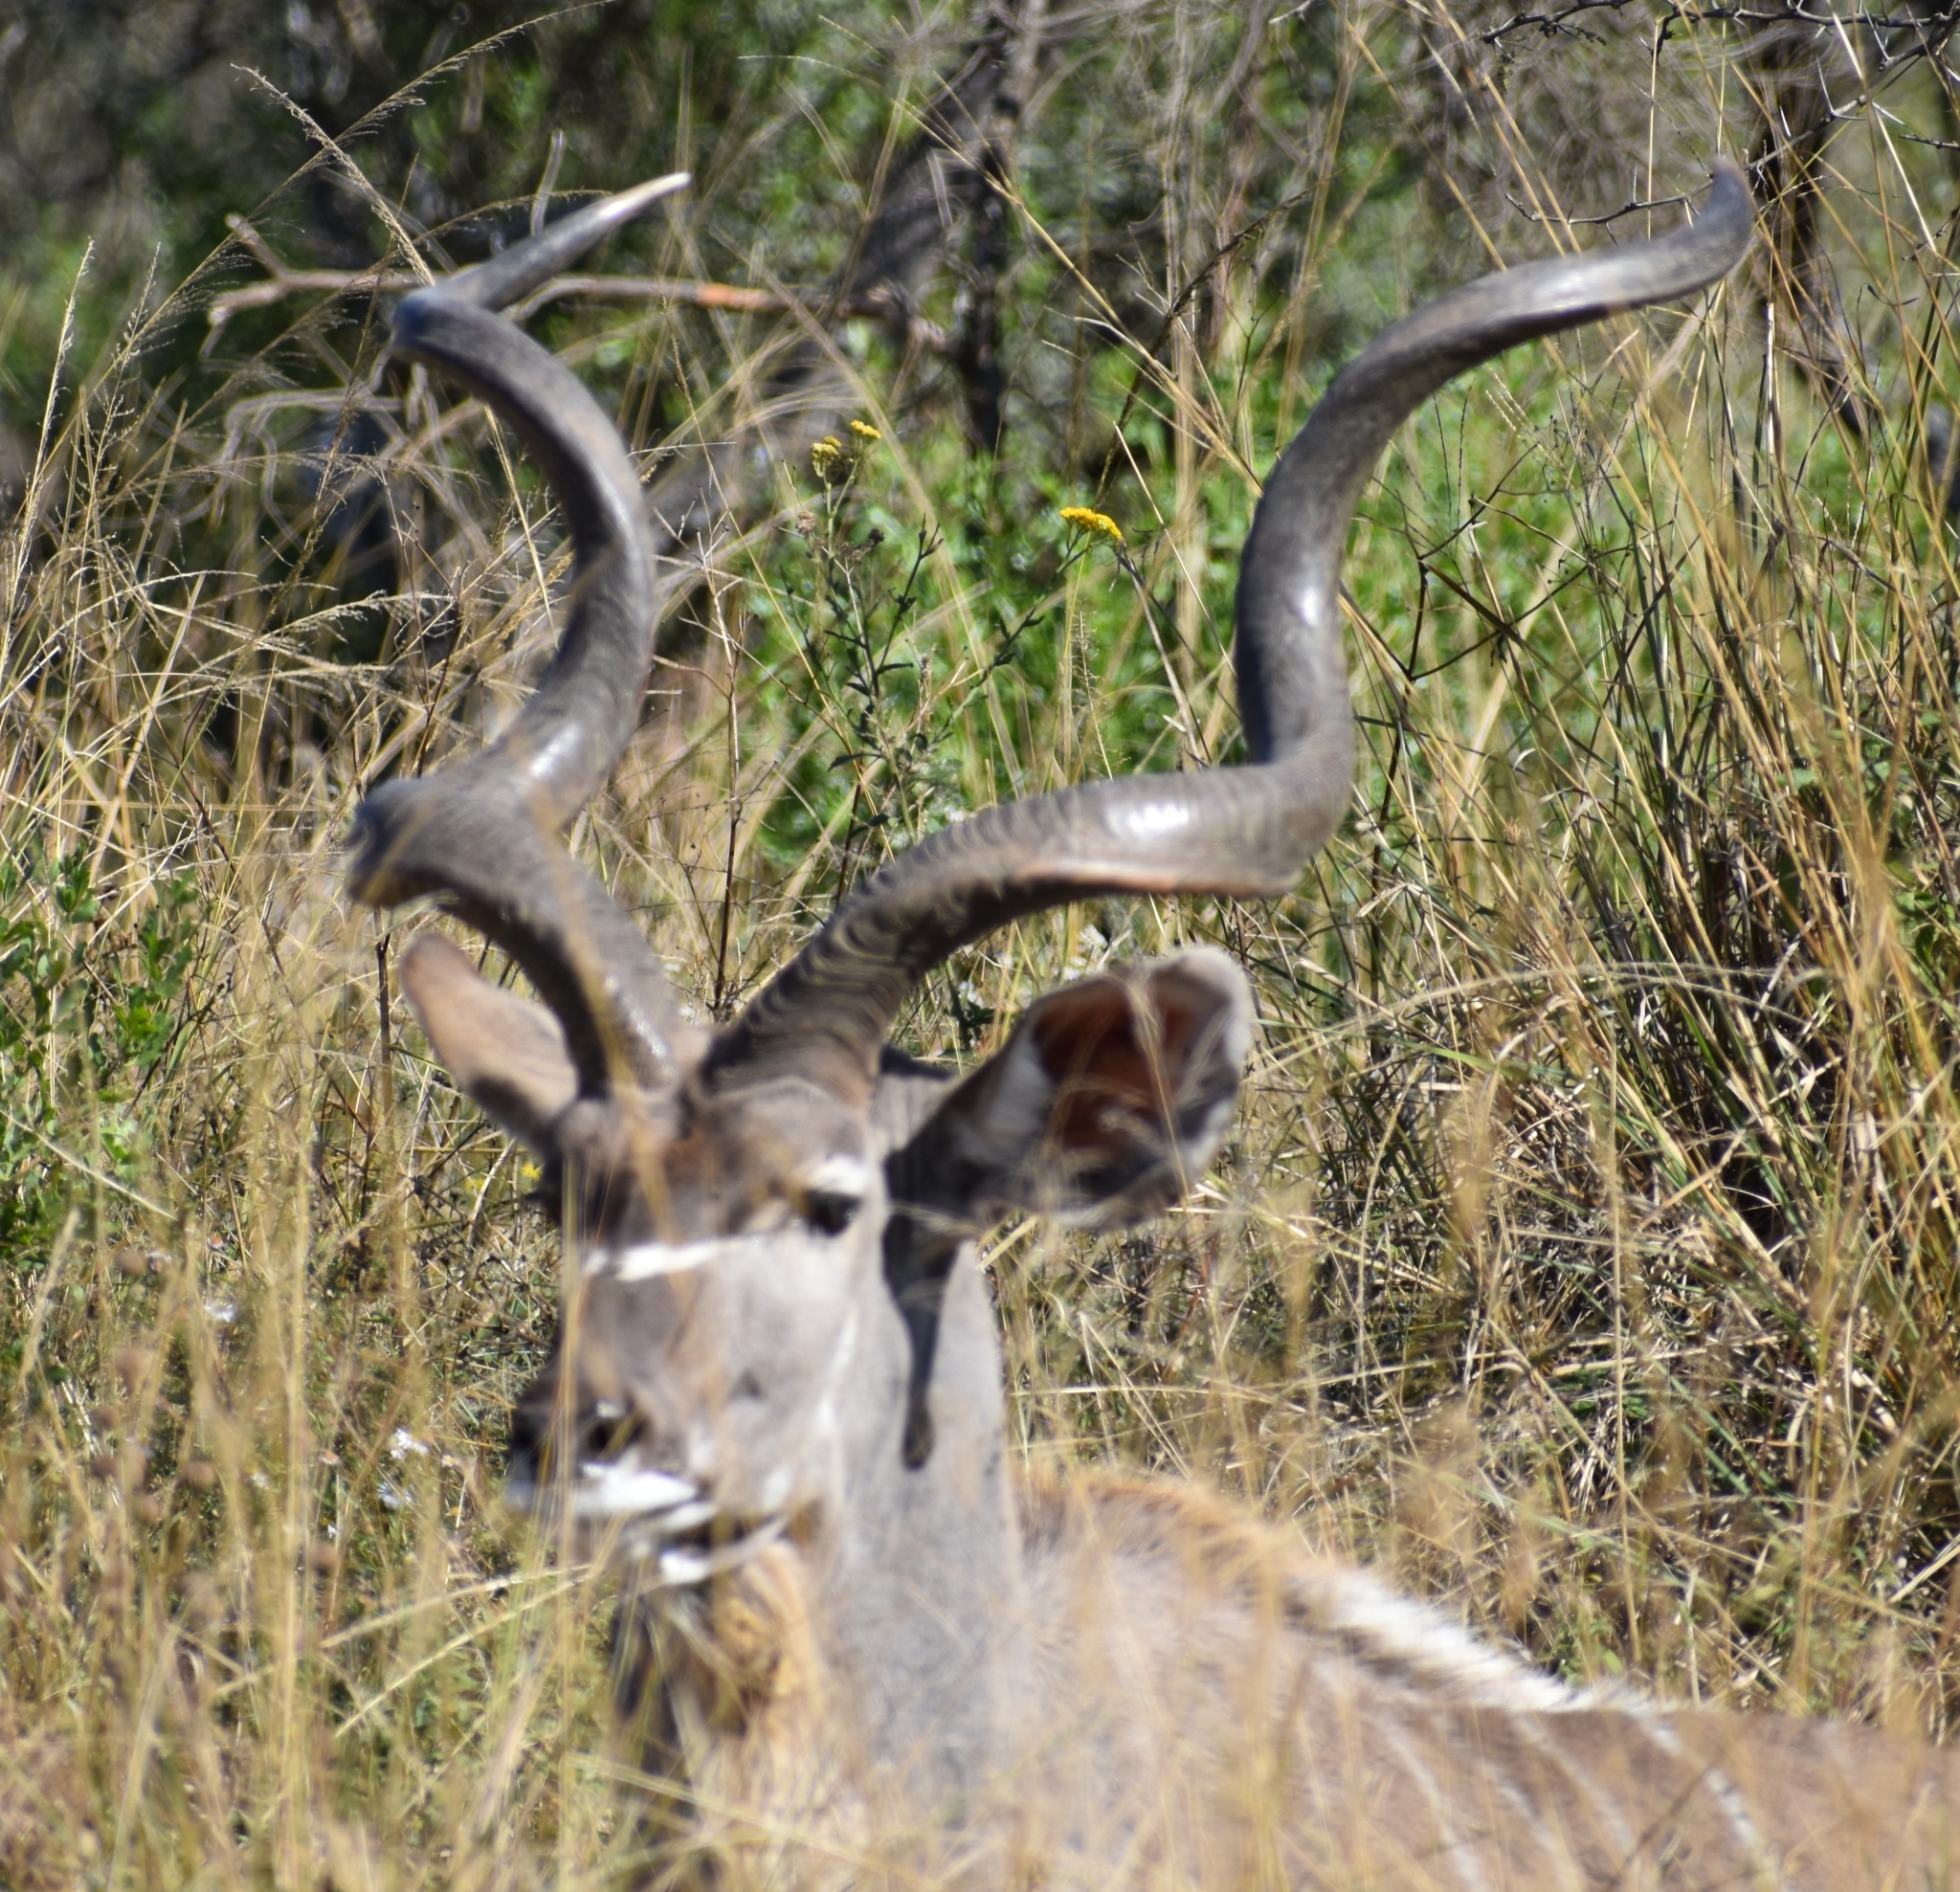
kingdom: Animalia
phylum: Chordata
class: Mammalia
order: Artiodactyla
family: Bovidae
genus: Tragelaphus
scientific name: Tragelaphus strepsiceros
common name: Greater kudu
